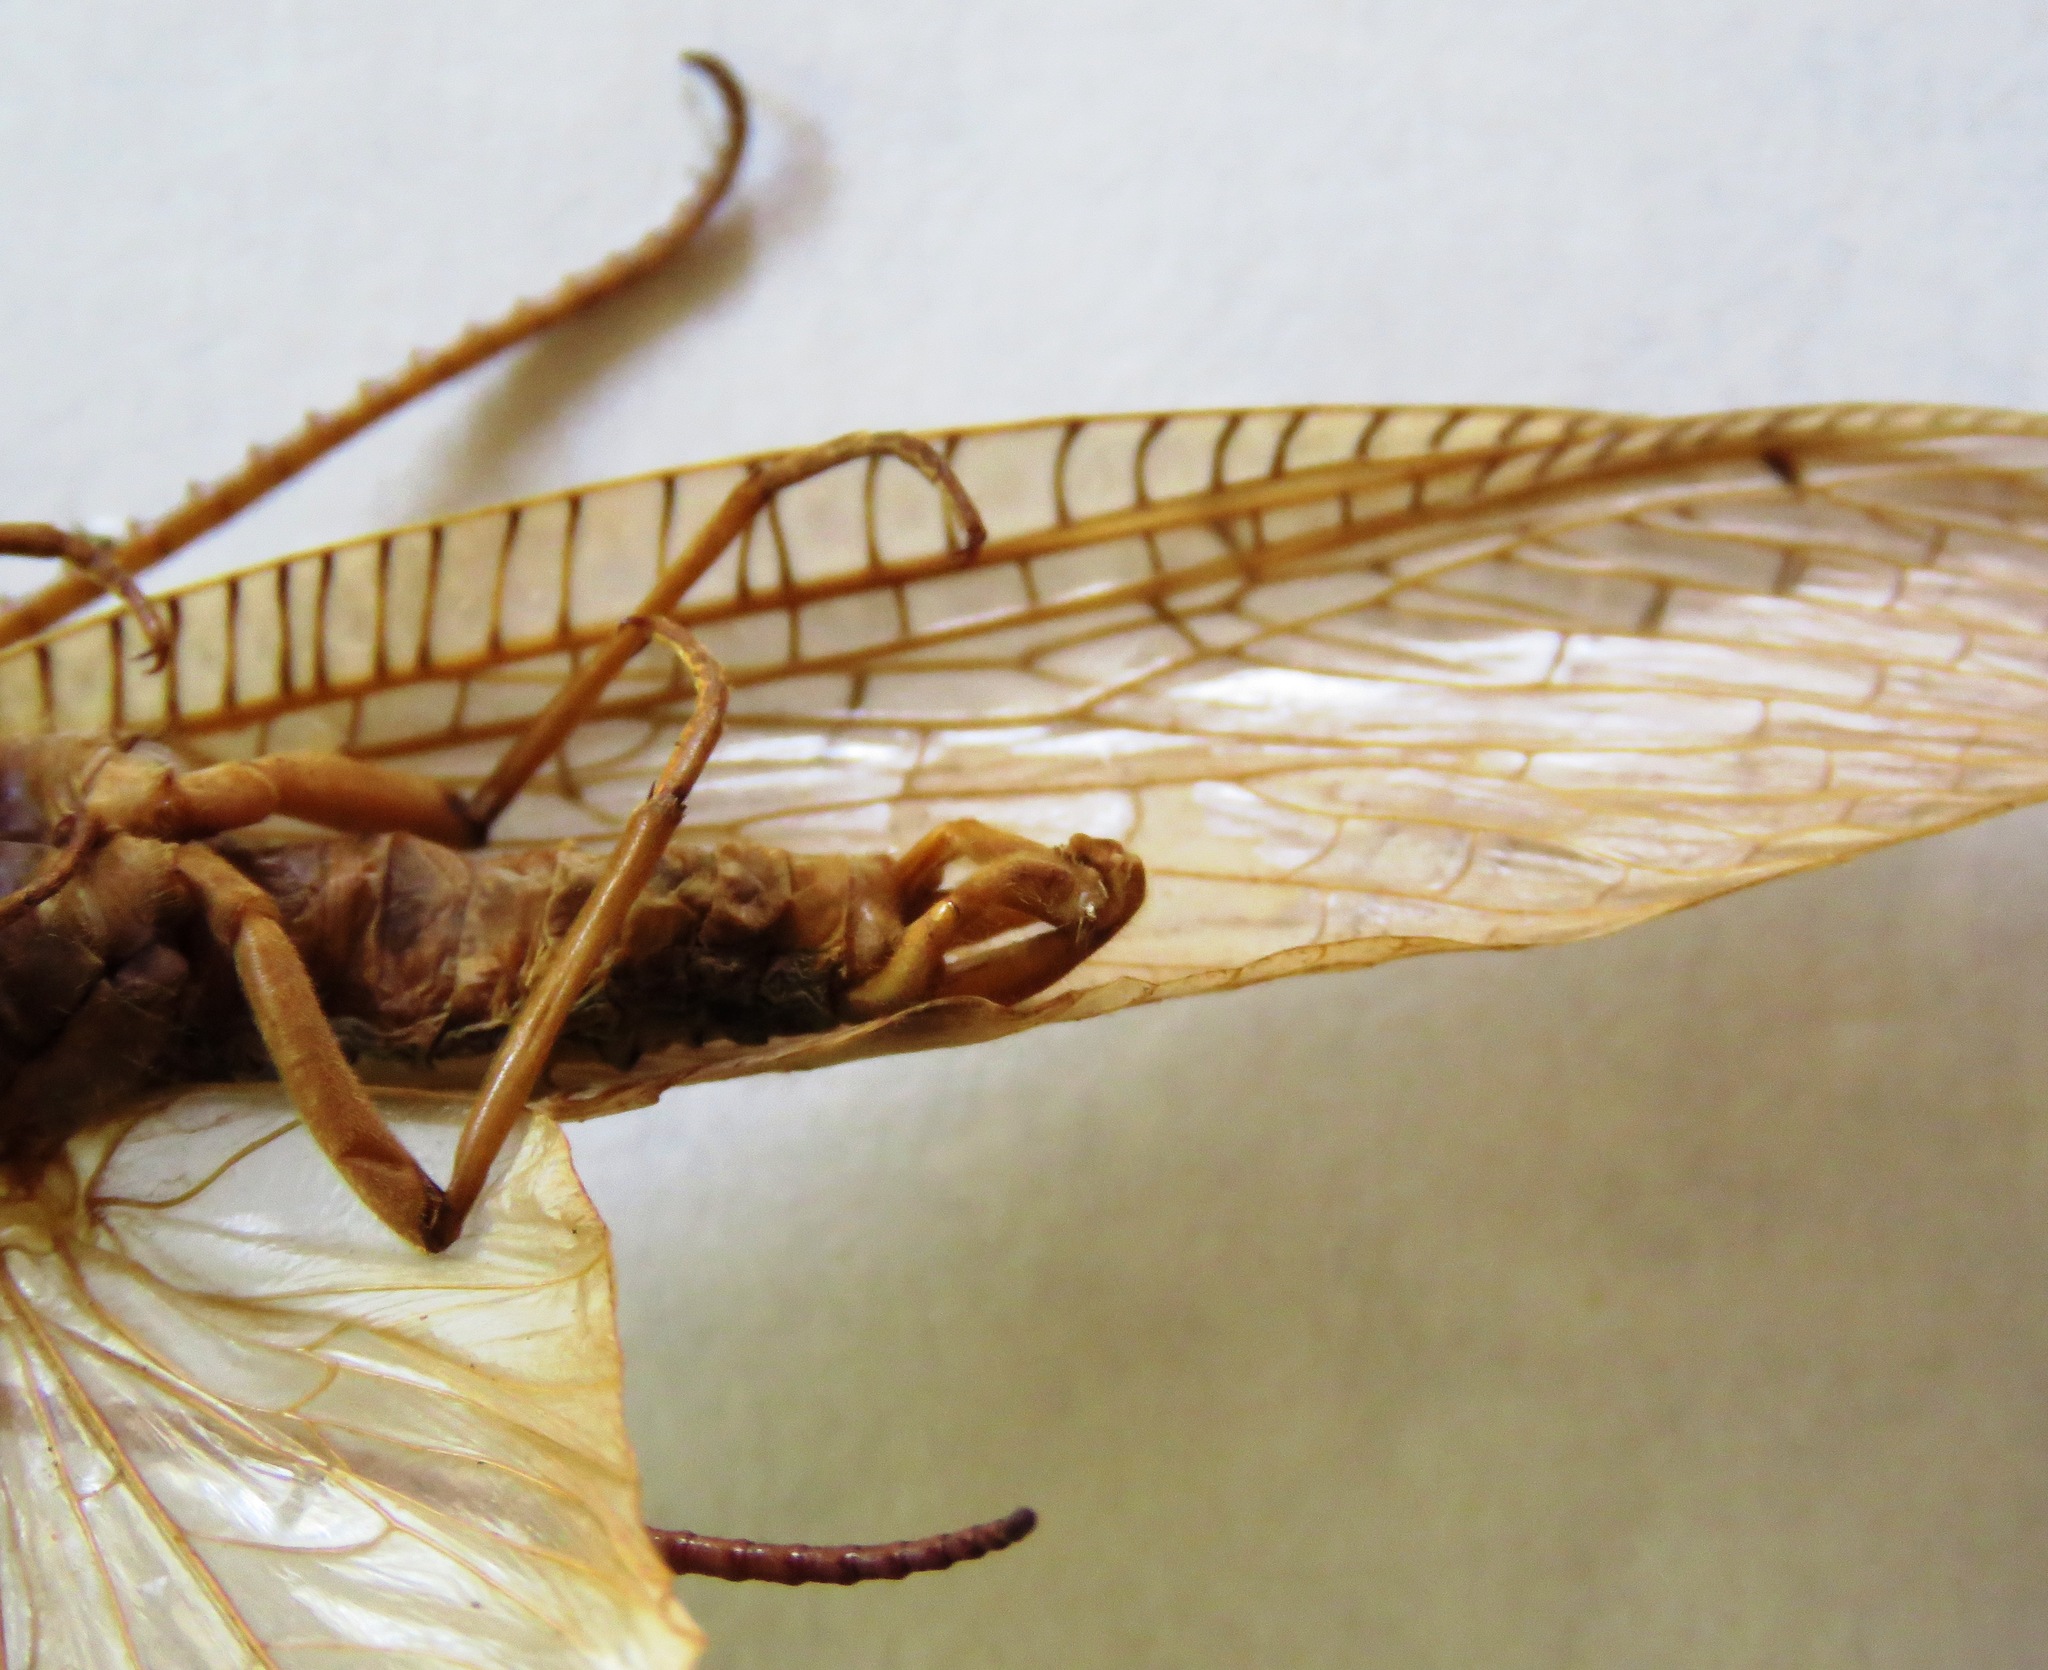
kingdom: Animalia
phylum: Arthropoda
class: Insecta
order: Megaloptera
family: Corydalidae
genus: Corydalus
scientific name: Corydalus luteus
